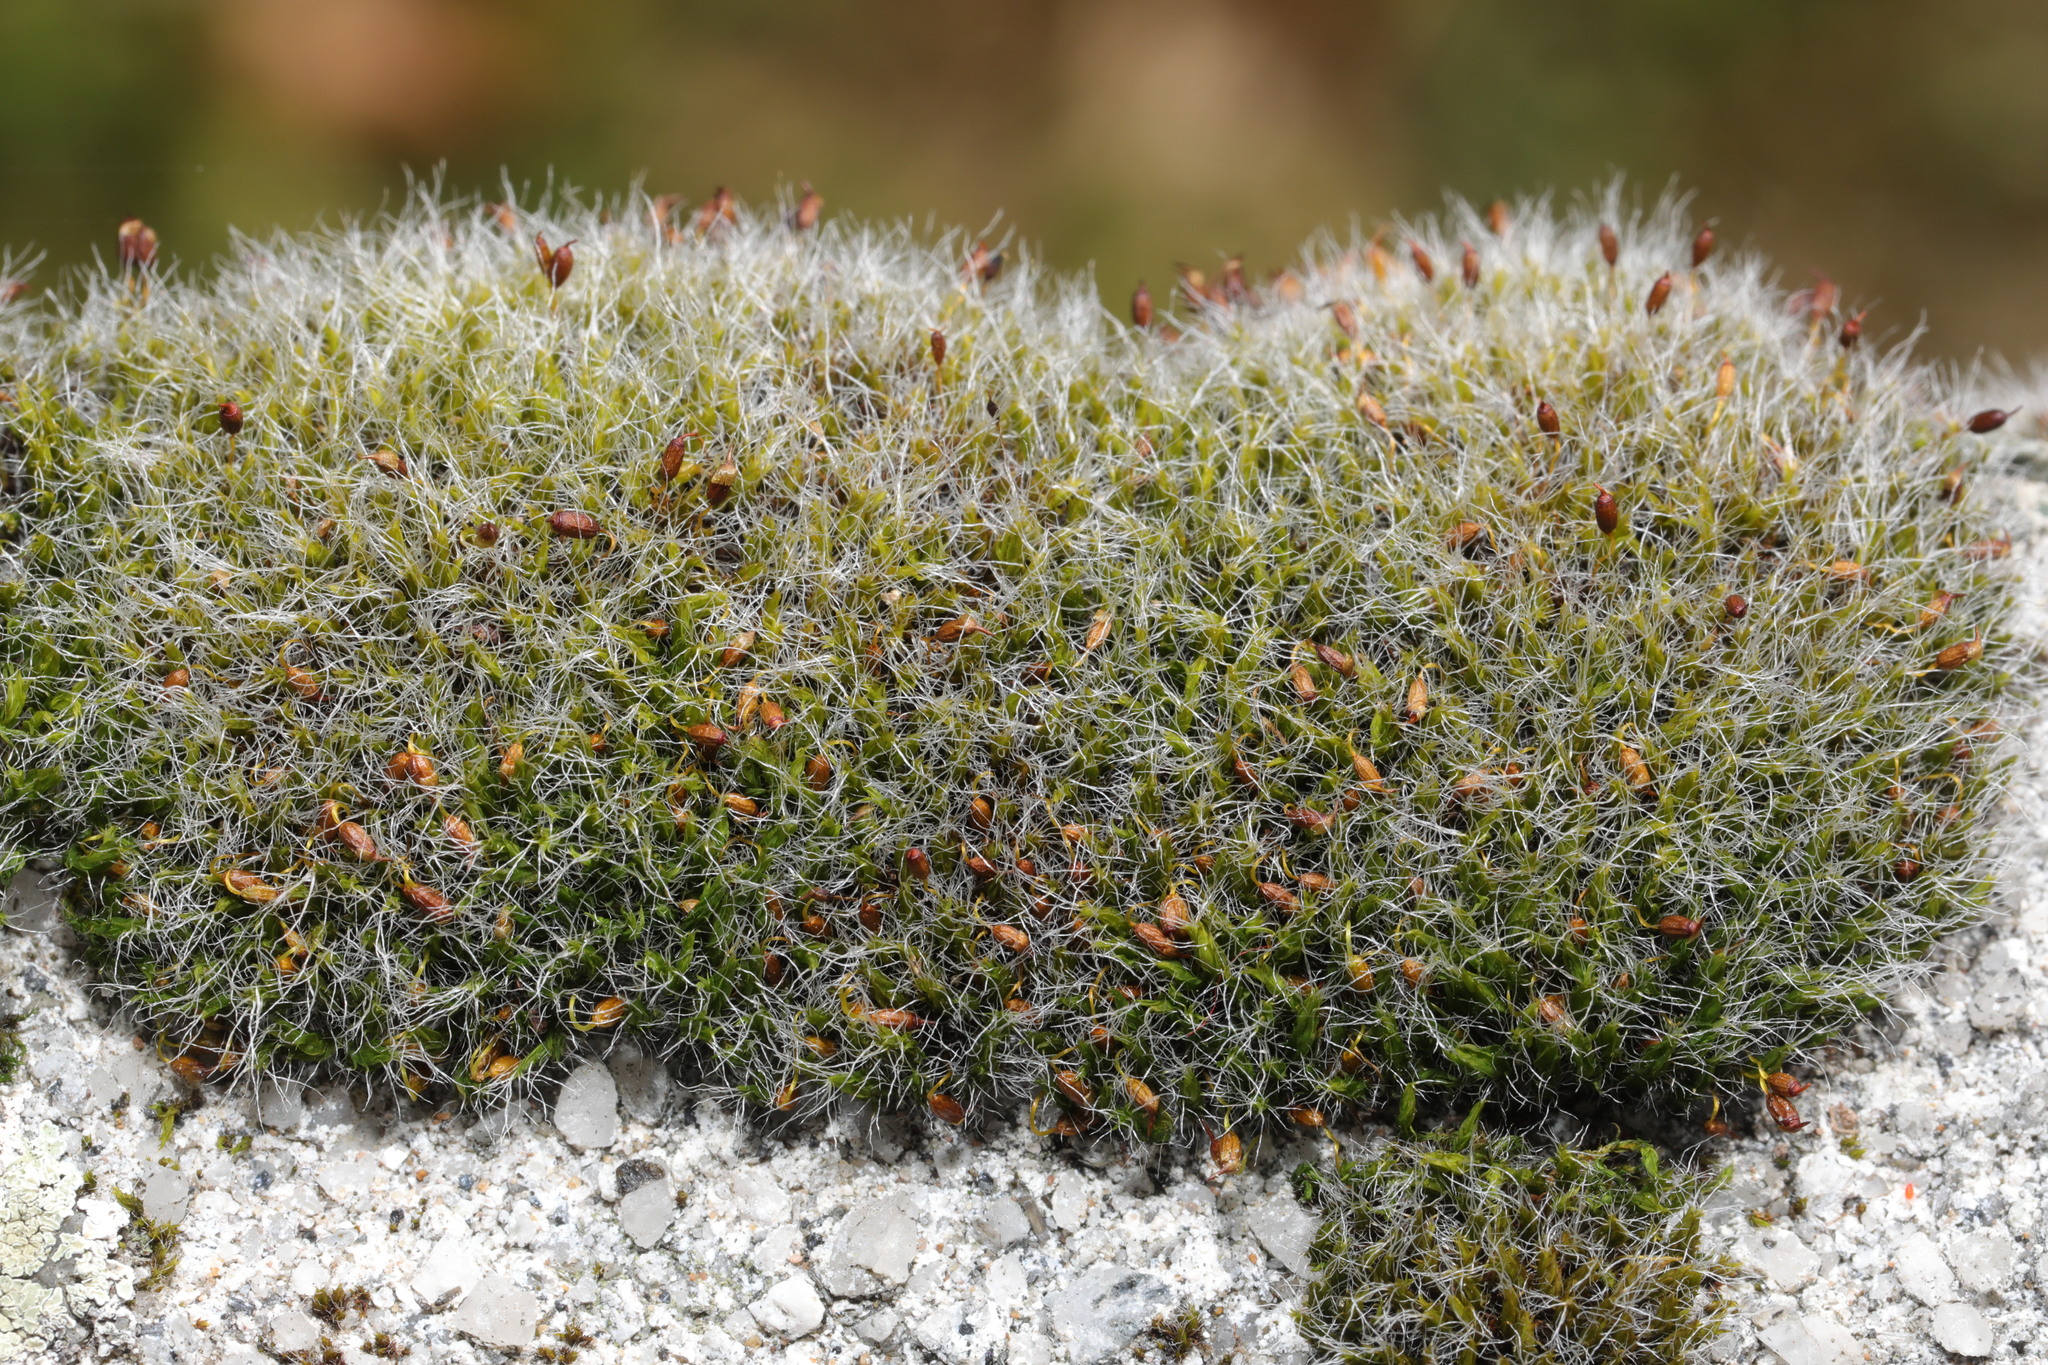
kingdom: Plantae
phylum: Bryophyta
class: Bryopsida
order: Grimmiales
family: Grimmiaceae
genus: Grimmia
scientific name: Grimmia pulvinata
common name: Grey-cushioned grimmia
